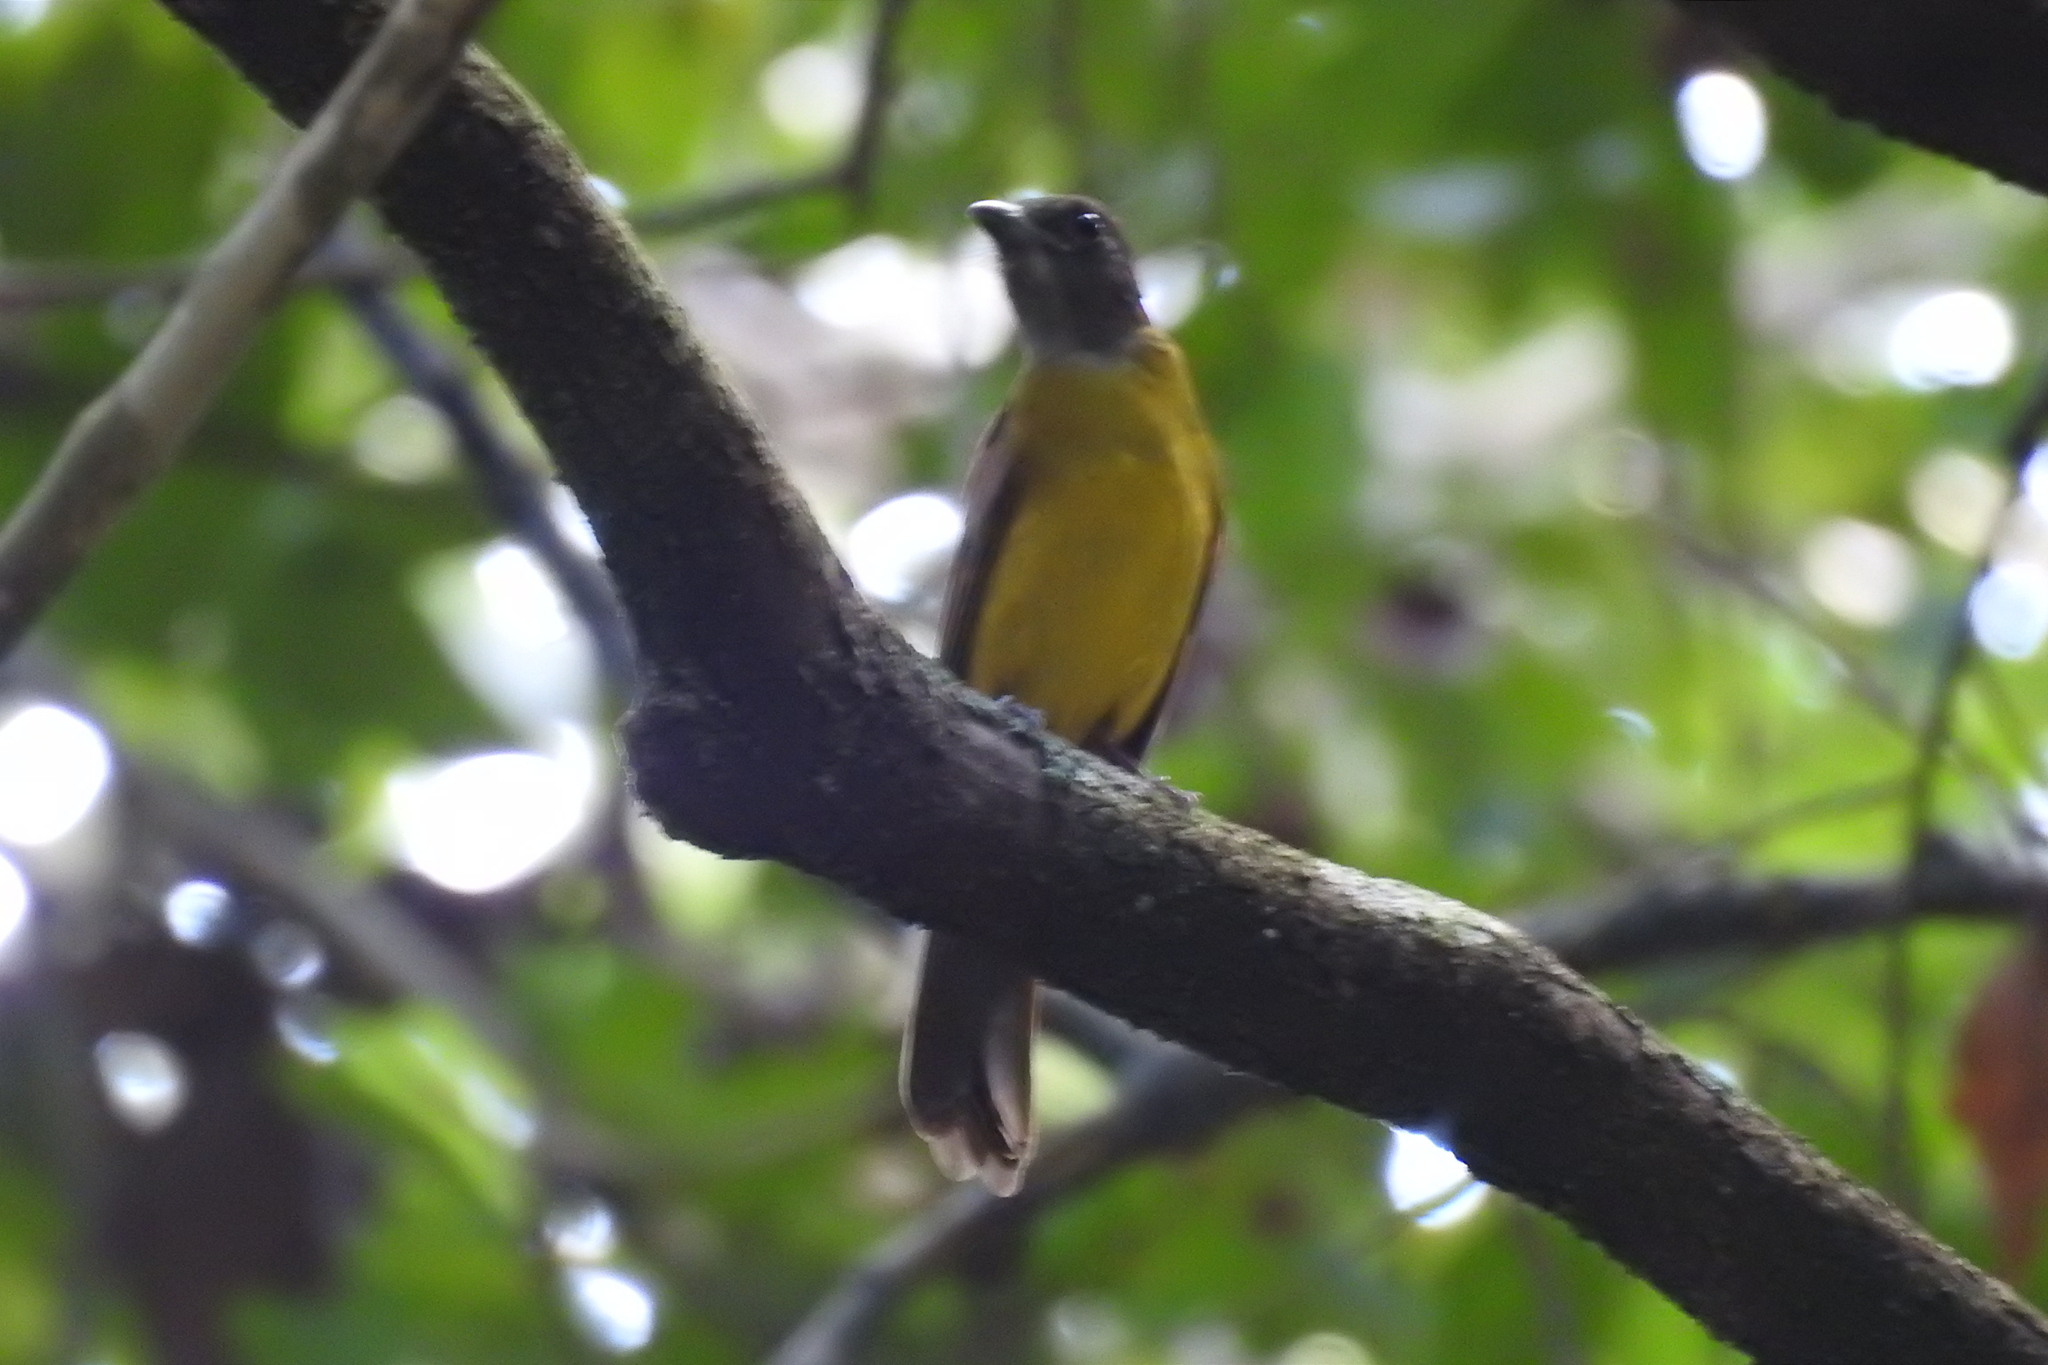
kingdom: Animalia
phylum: Chordata
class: Aves
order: Passeriformes
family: Thraupidae
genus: Lanio
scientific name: Lanio aurantius
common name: Black-throated shrike-tanager
